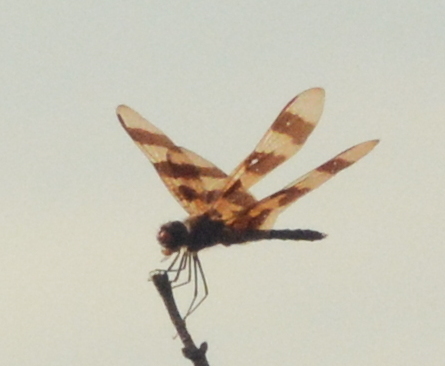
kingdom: Animalia
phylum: Arthropoda
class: Insecta
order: Odonata
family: Libellulidae
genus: Celithemis
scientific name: Celithemis eponina
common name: Halloween pennant
